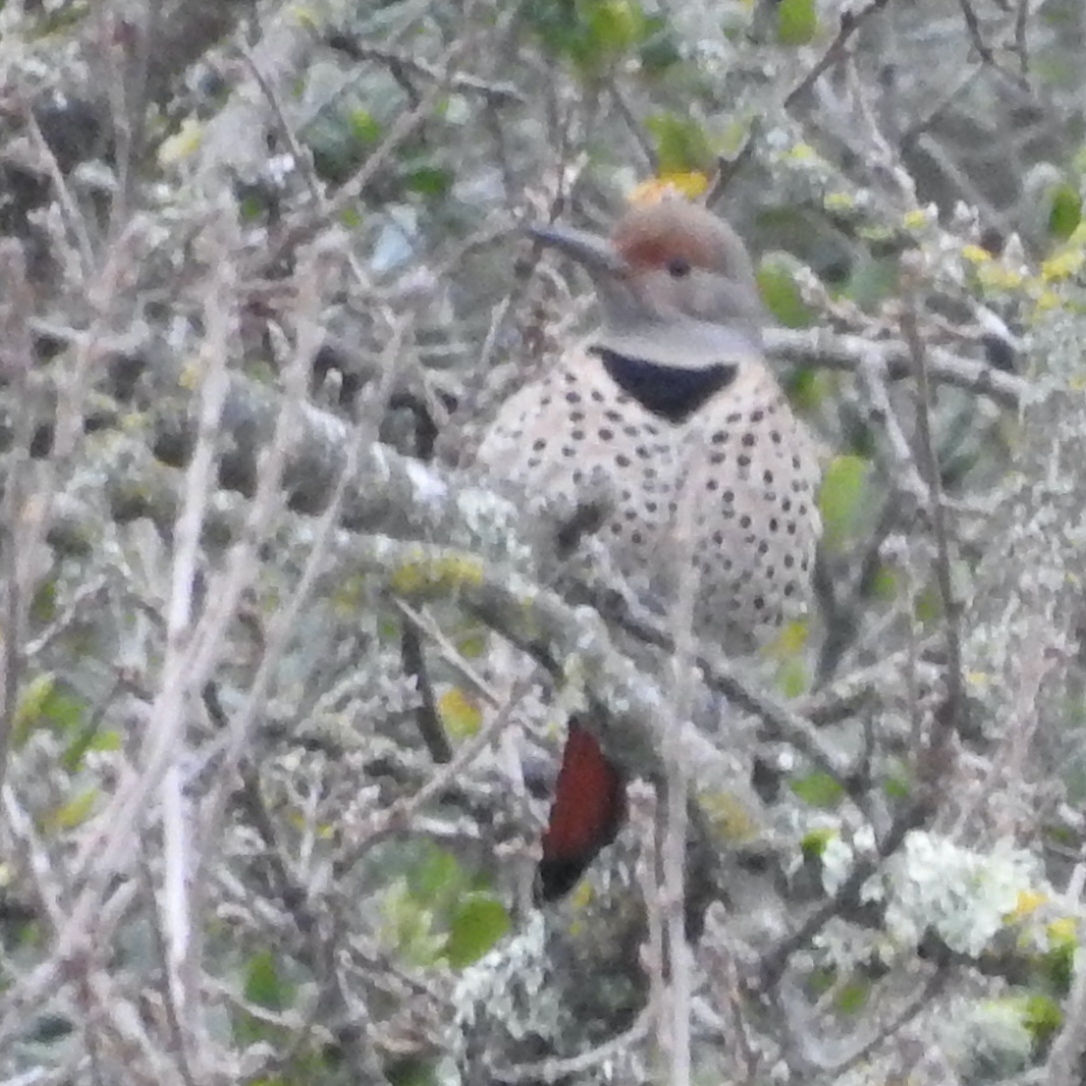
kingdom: Animalia
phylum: Chordata
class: Aves
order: Piciformes
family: Picidae
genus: Colaptes
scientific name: Colaptes auratus
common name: Northern flicker
